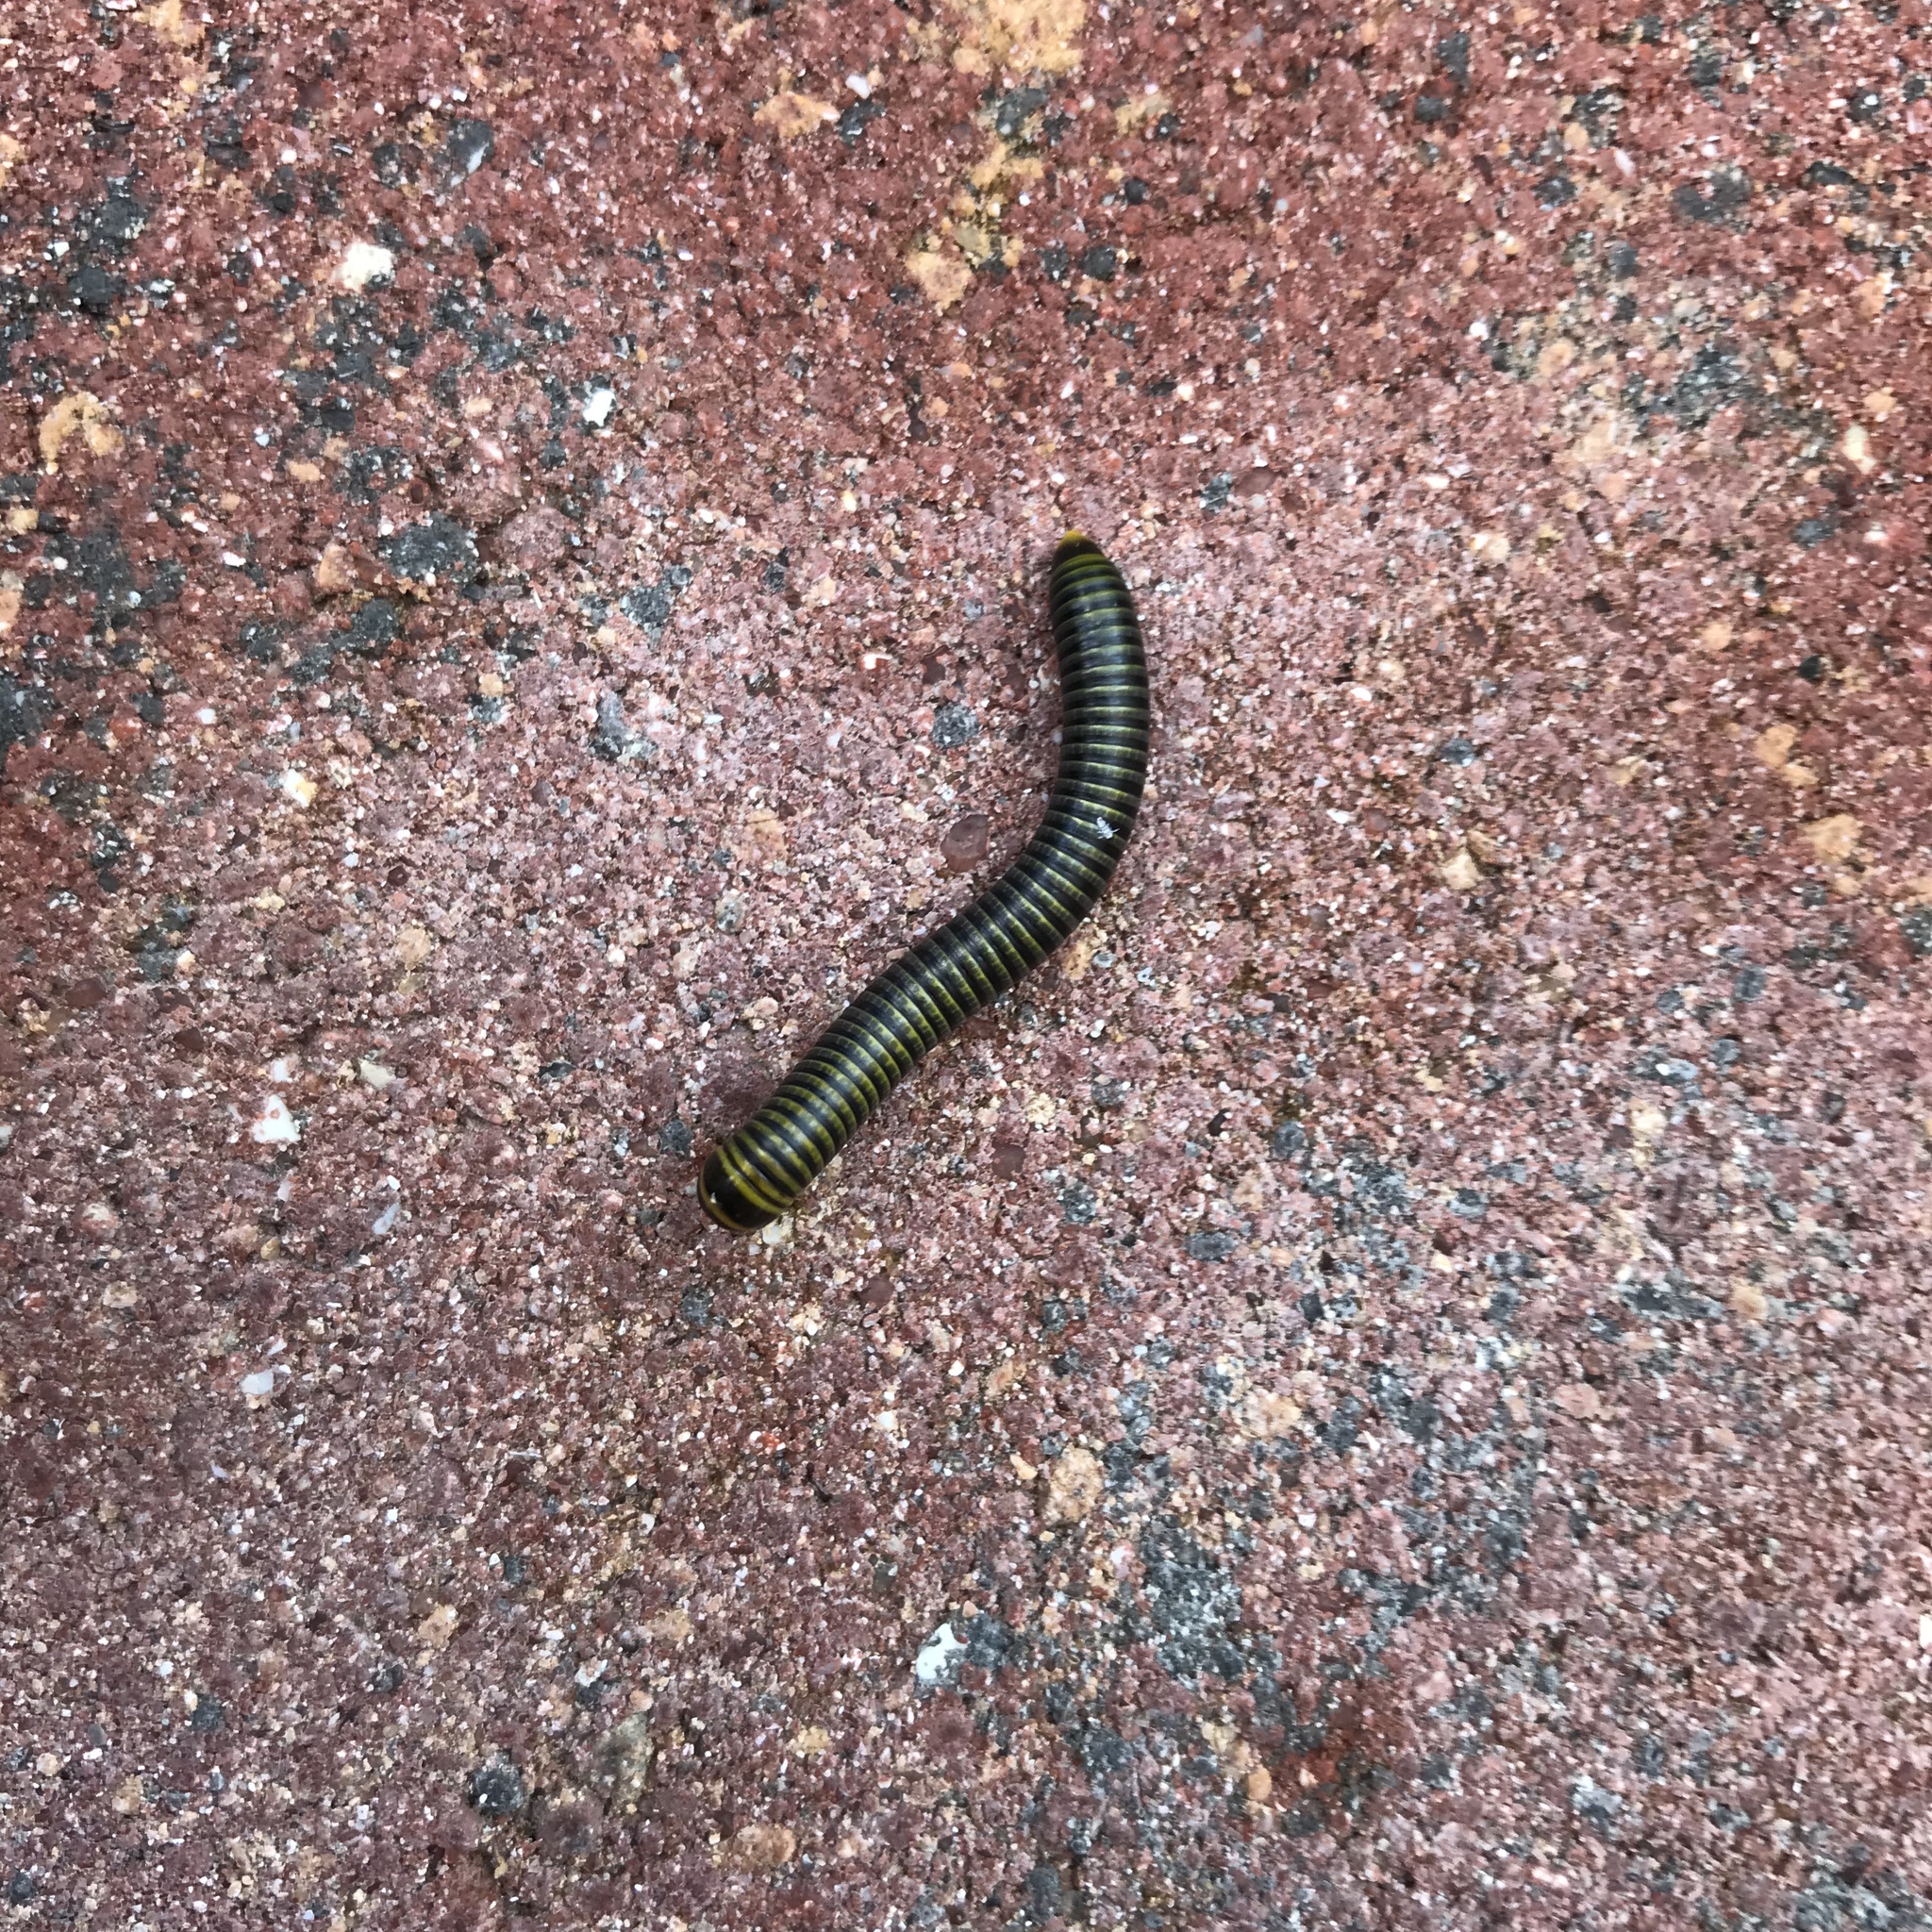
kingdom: Animalia
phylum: Arthropoda
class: Diplopoda
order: Spirobolida
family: Rhinocricidae
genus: Anadenobolus
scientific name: Anadenobolus monilicornis
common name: Caribbean millipede
